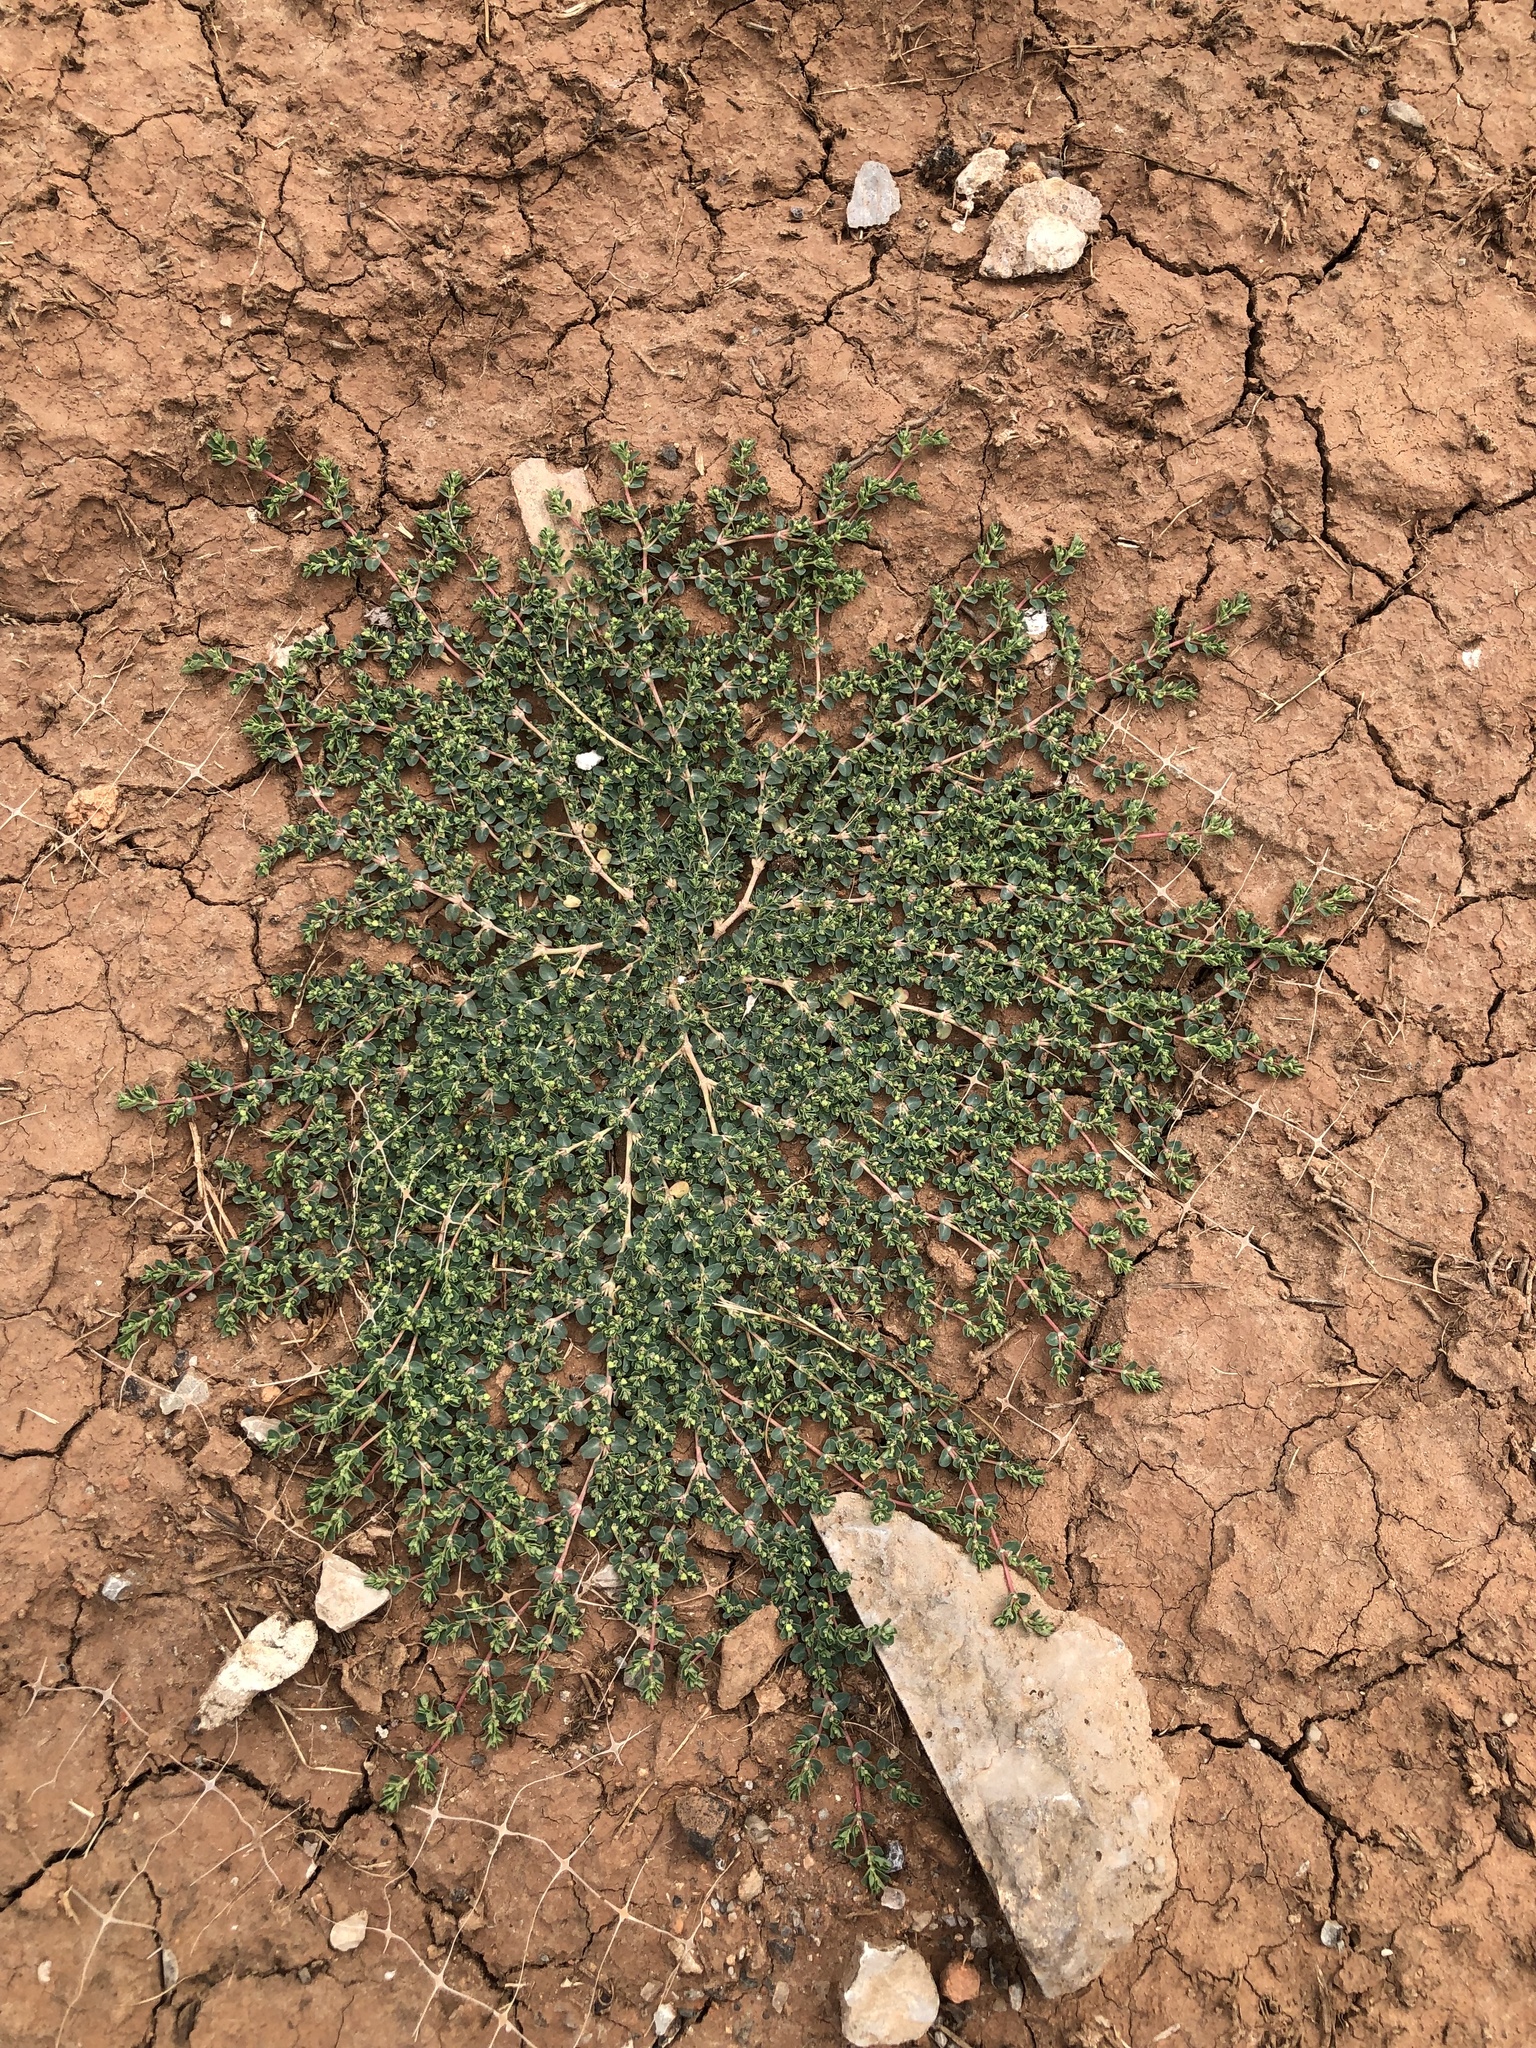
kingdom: Plantae
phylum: Tracheophyta
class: Magnoliopsida
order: Malpighiales
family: Euphorbiaceae
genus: Euphorbia
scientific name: Euphorbia serpens
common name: Matted sandmat
